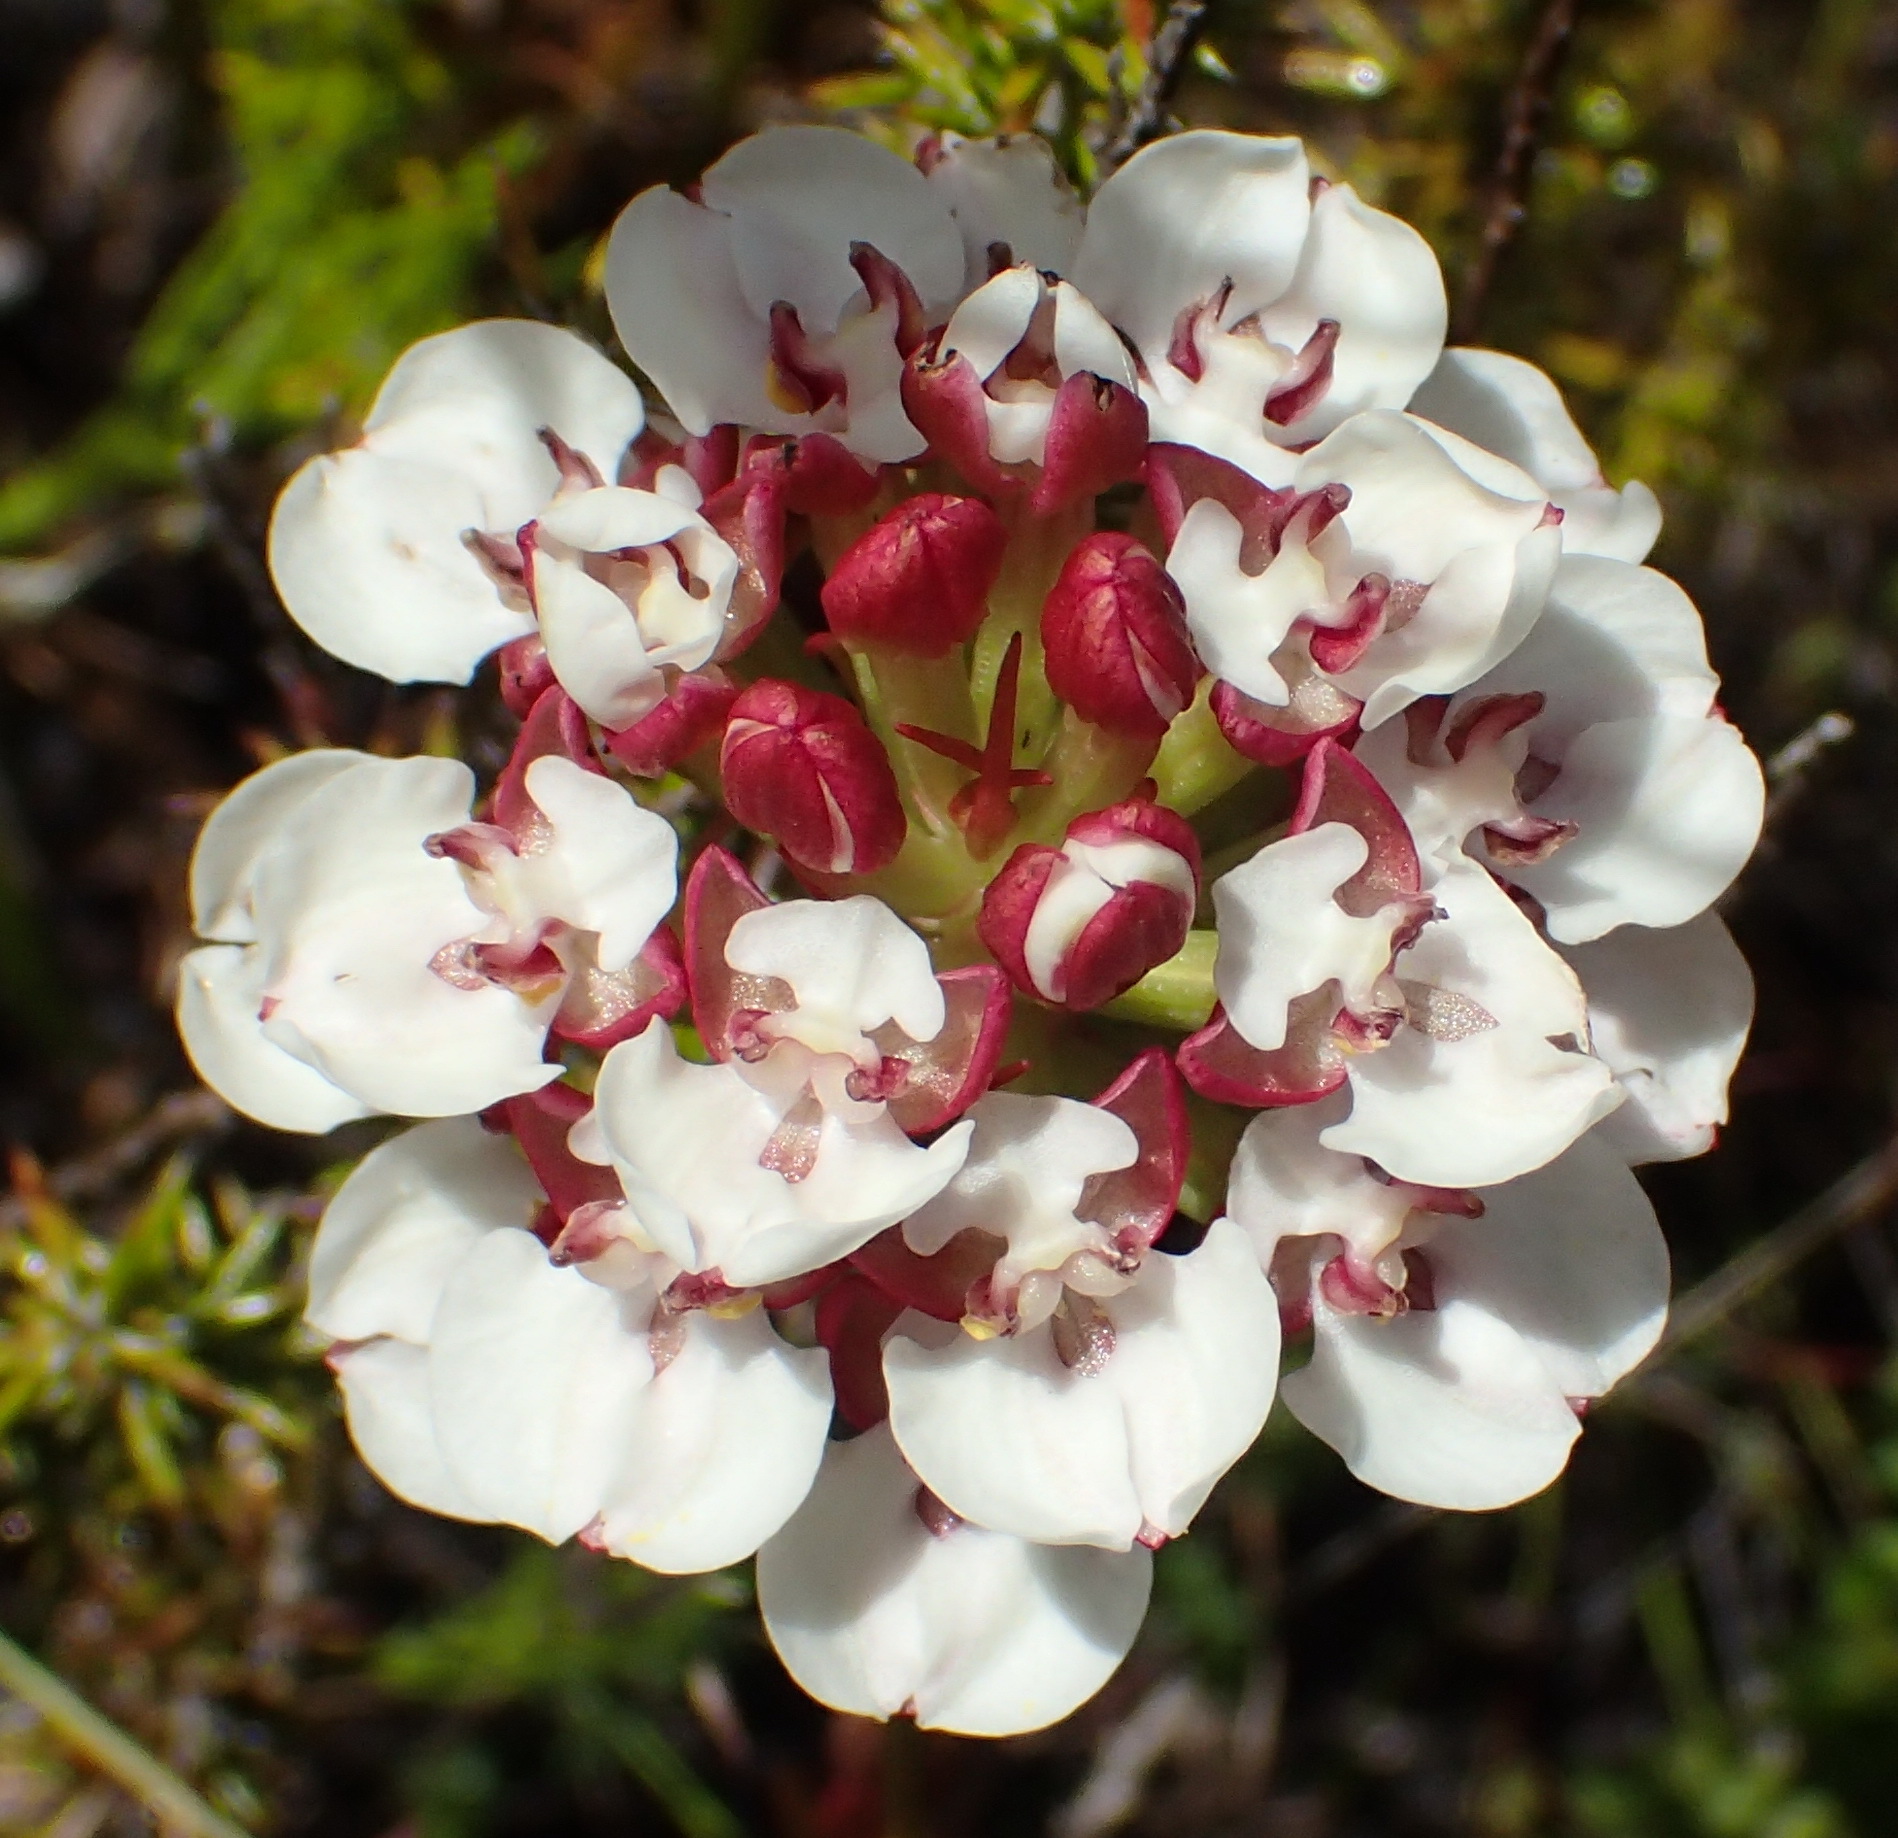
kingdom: Plantae
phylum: Tracheophyta
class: Liliopsida
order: Asparagales
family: Orchidaceae
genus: Ceratandra
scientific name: Ceratandra globosa
